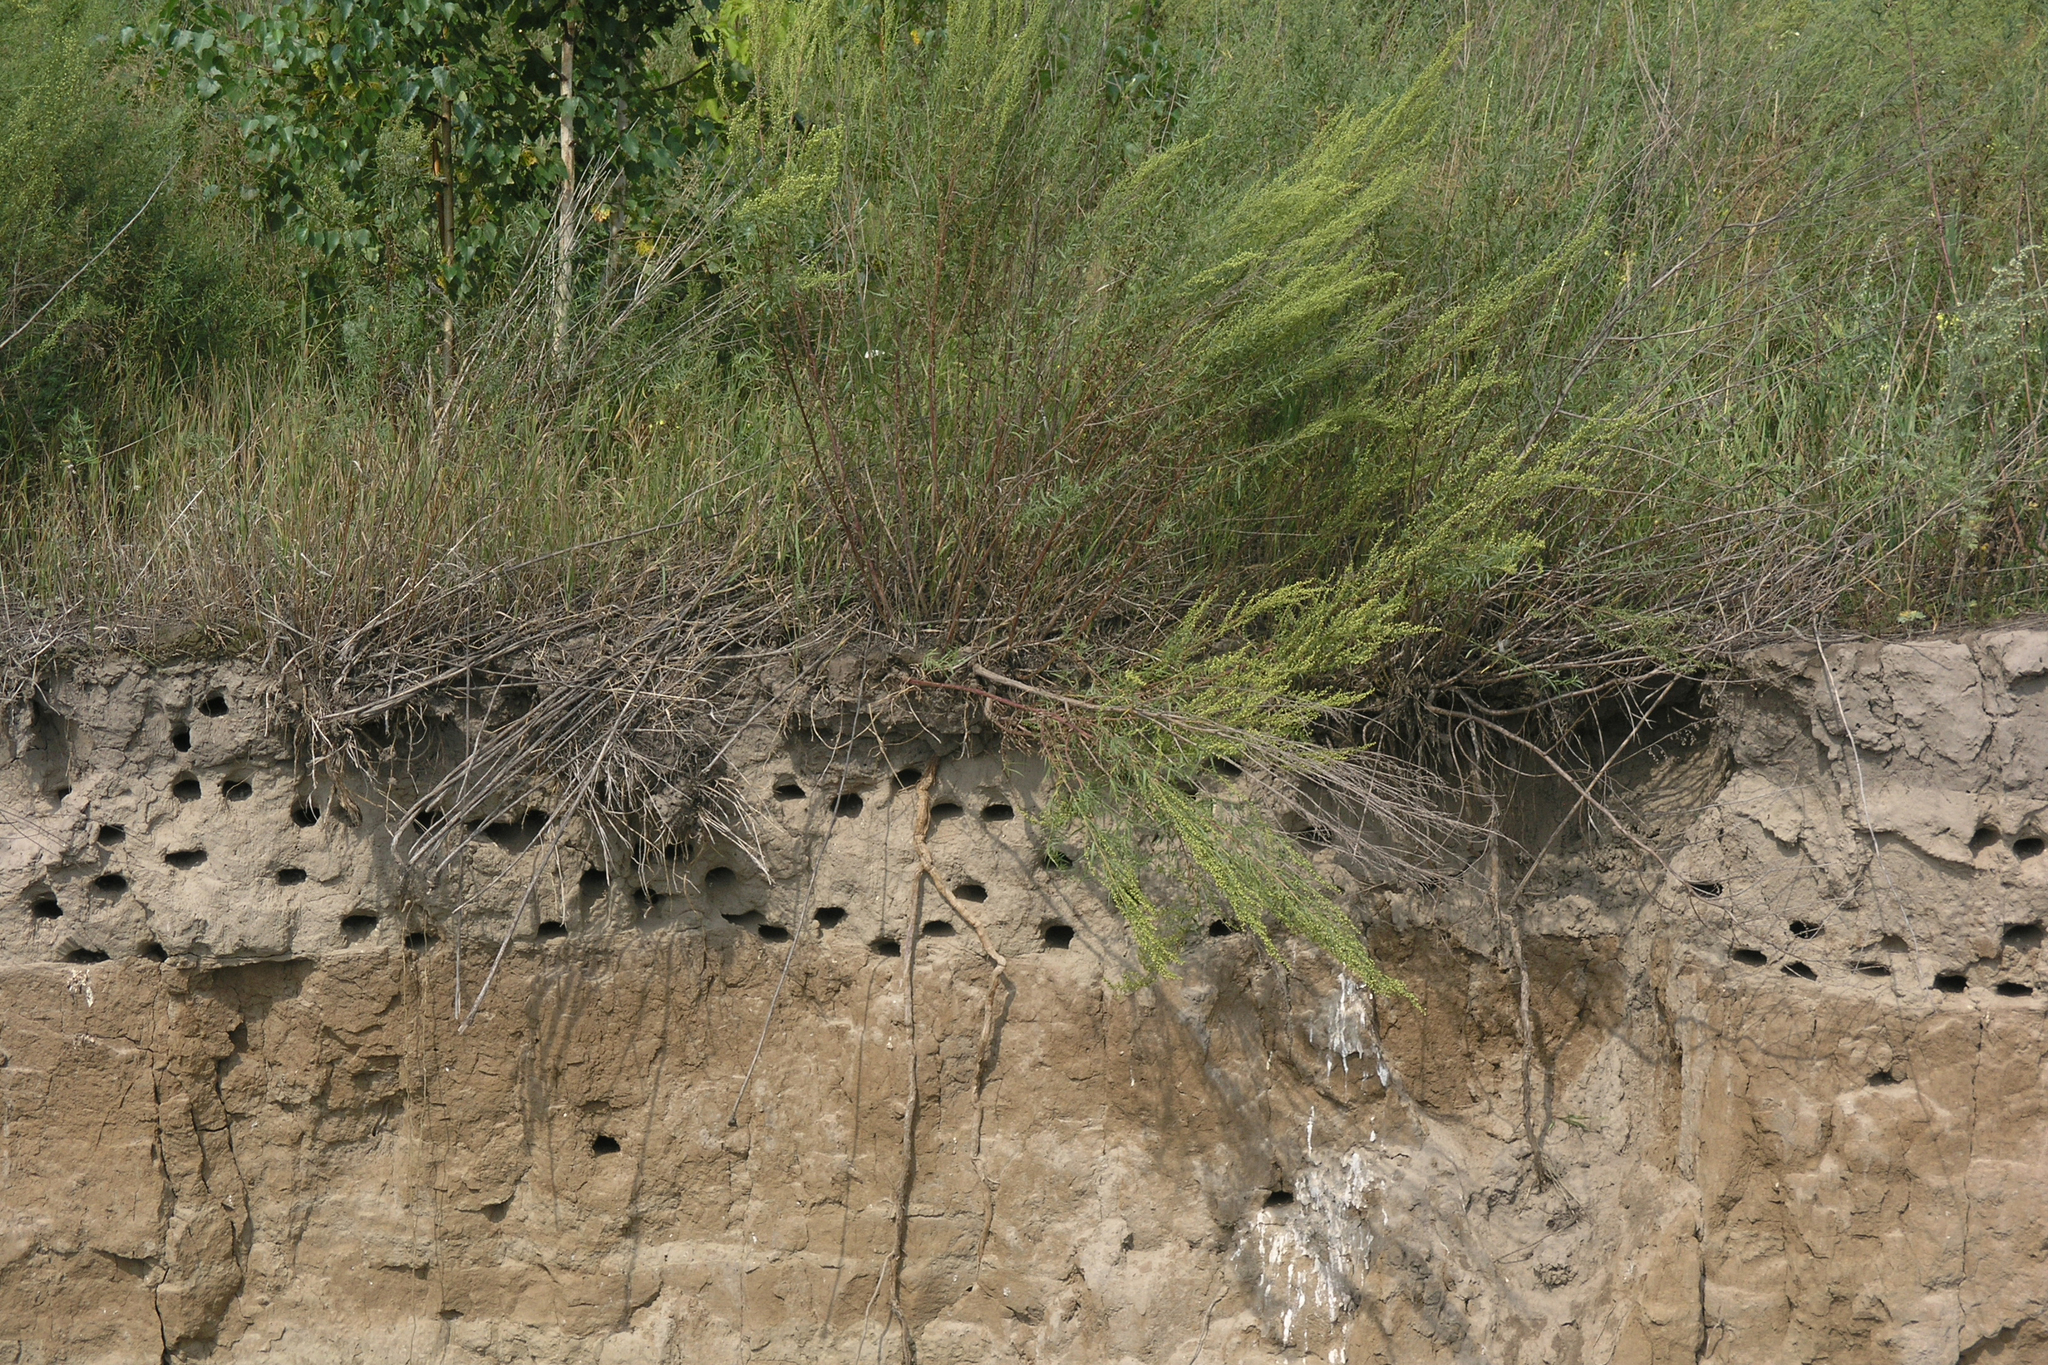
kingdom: Animalia
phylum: Chordata
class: Aves
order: Passeriformes
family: Hirundinidae
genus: Riparia
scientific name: Riparia riparia
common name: Sand martin
